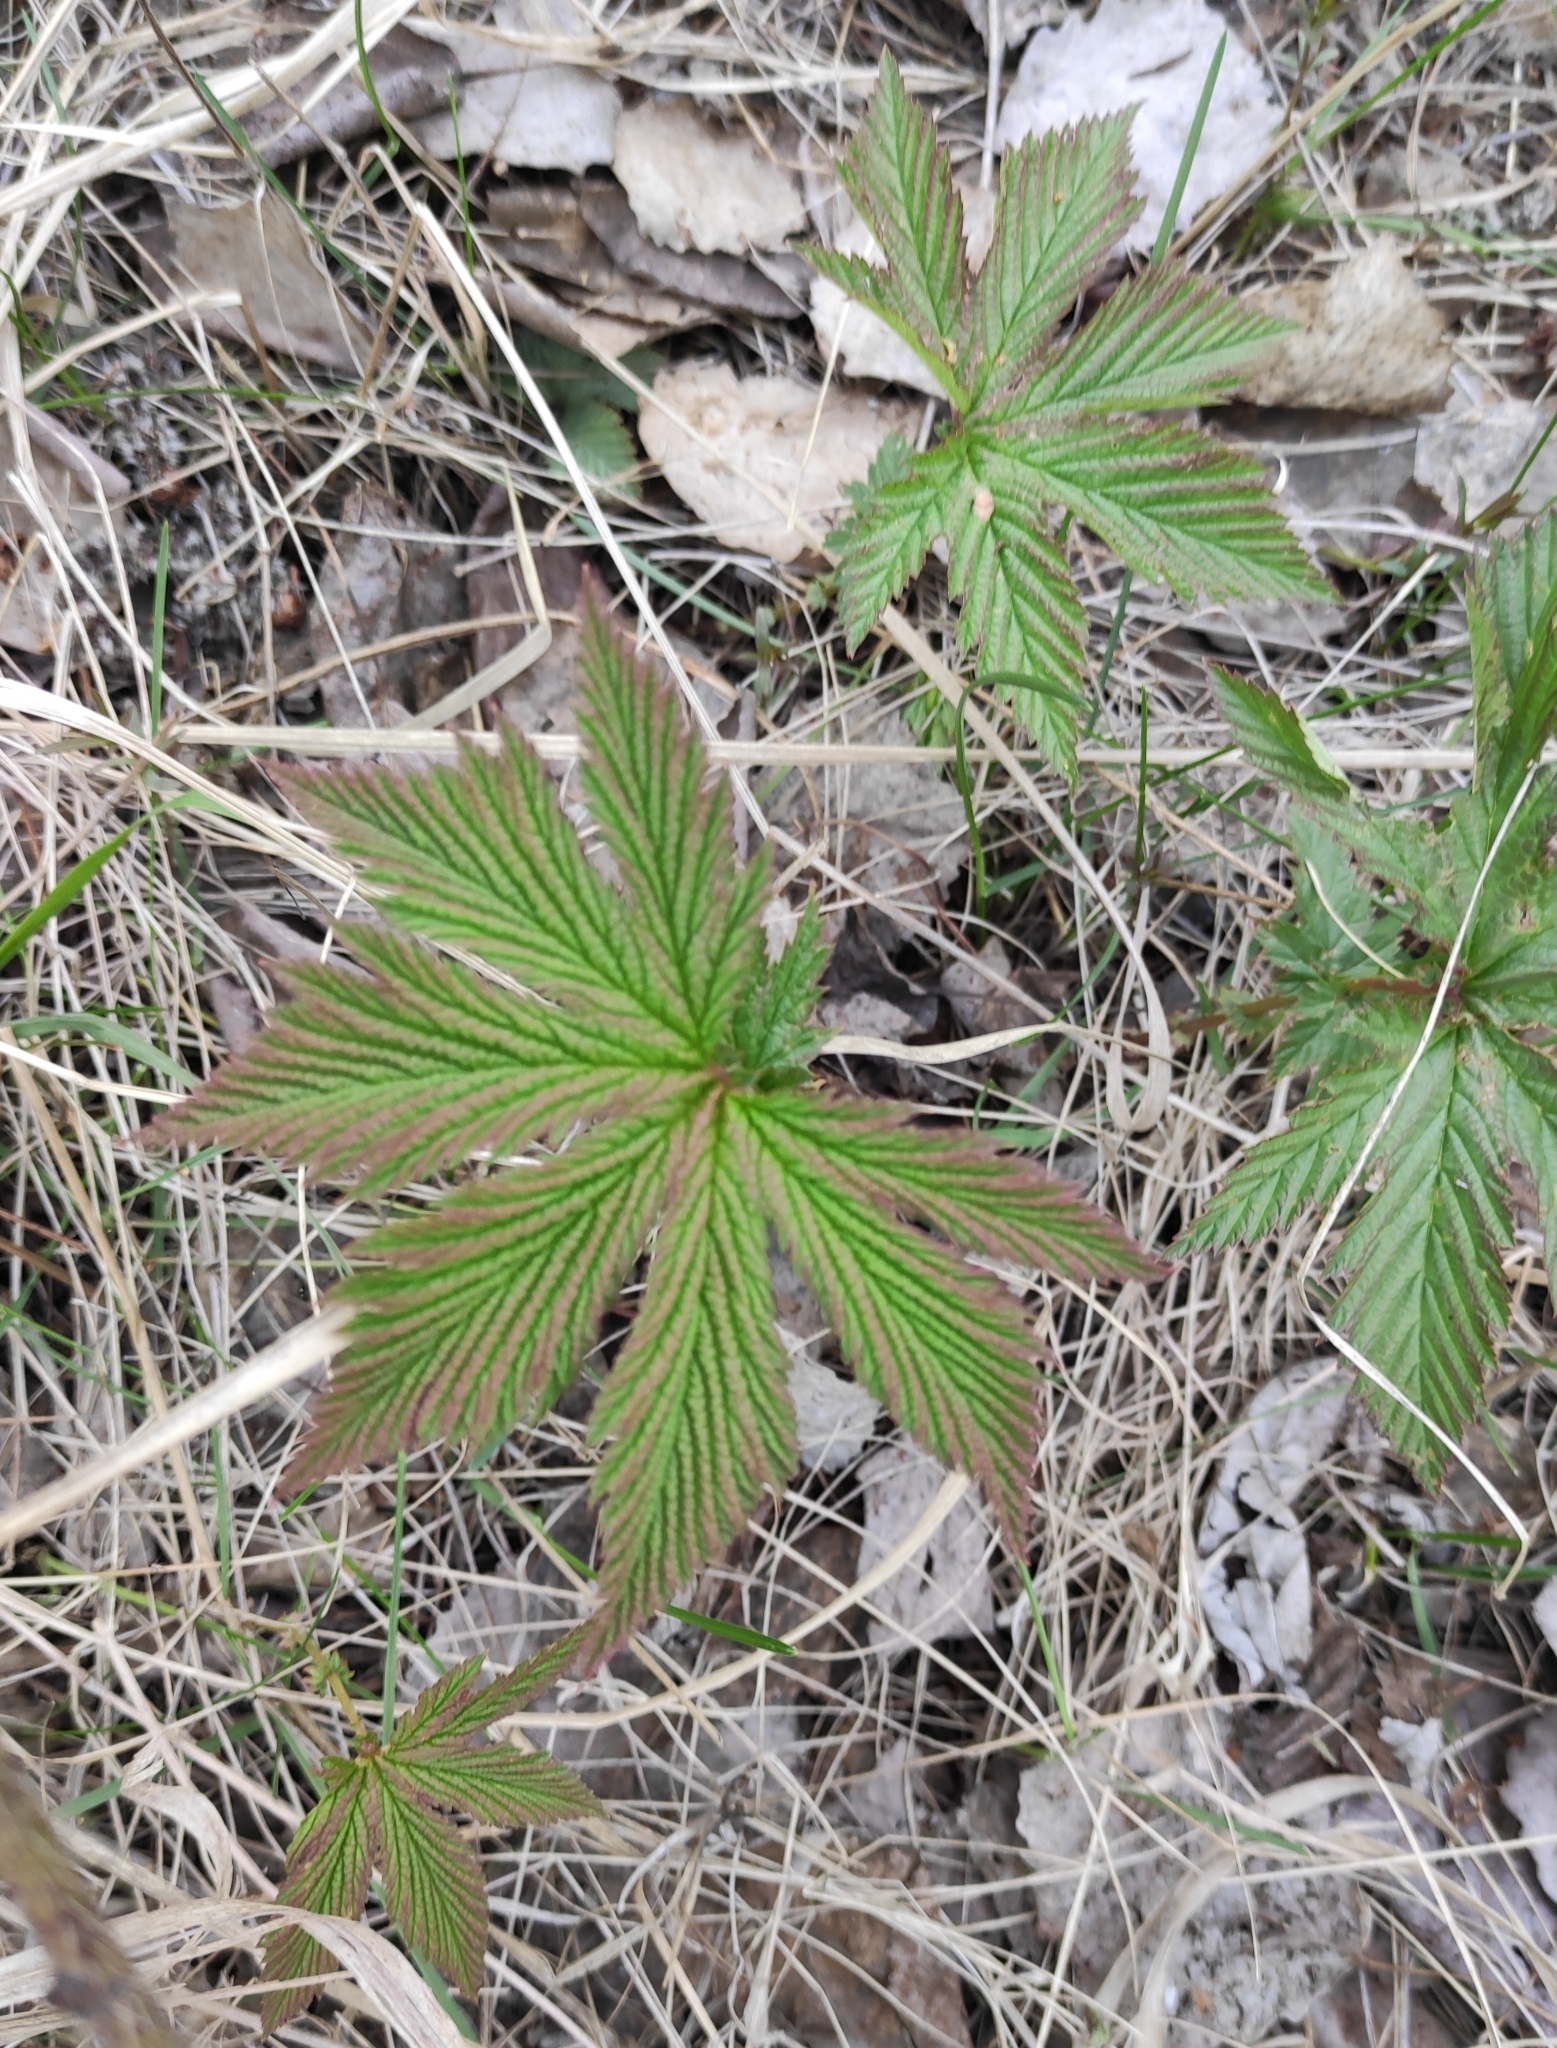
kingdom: Plantae
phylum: Tracheophyta
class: Magnoliopsida
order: Rosales
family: Rosaceae
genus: Filipendula
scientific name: Filipendula digitata
